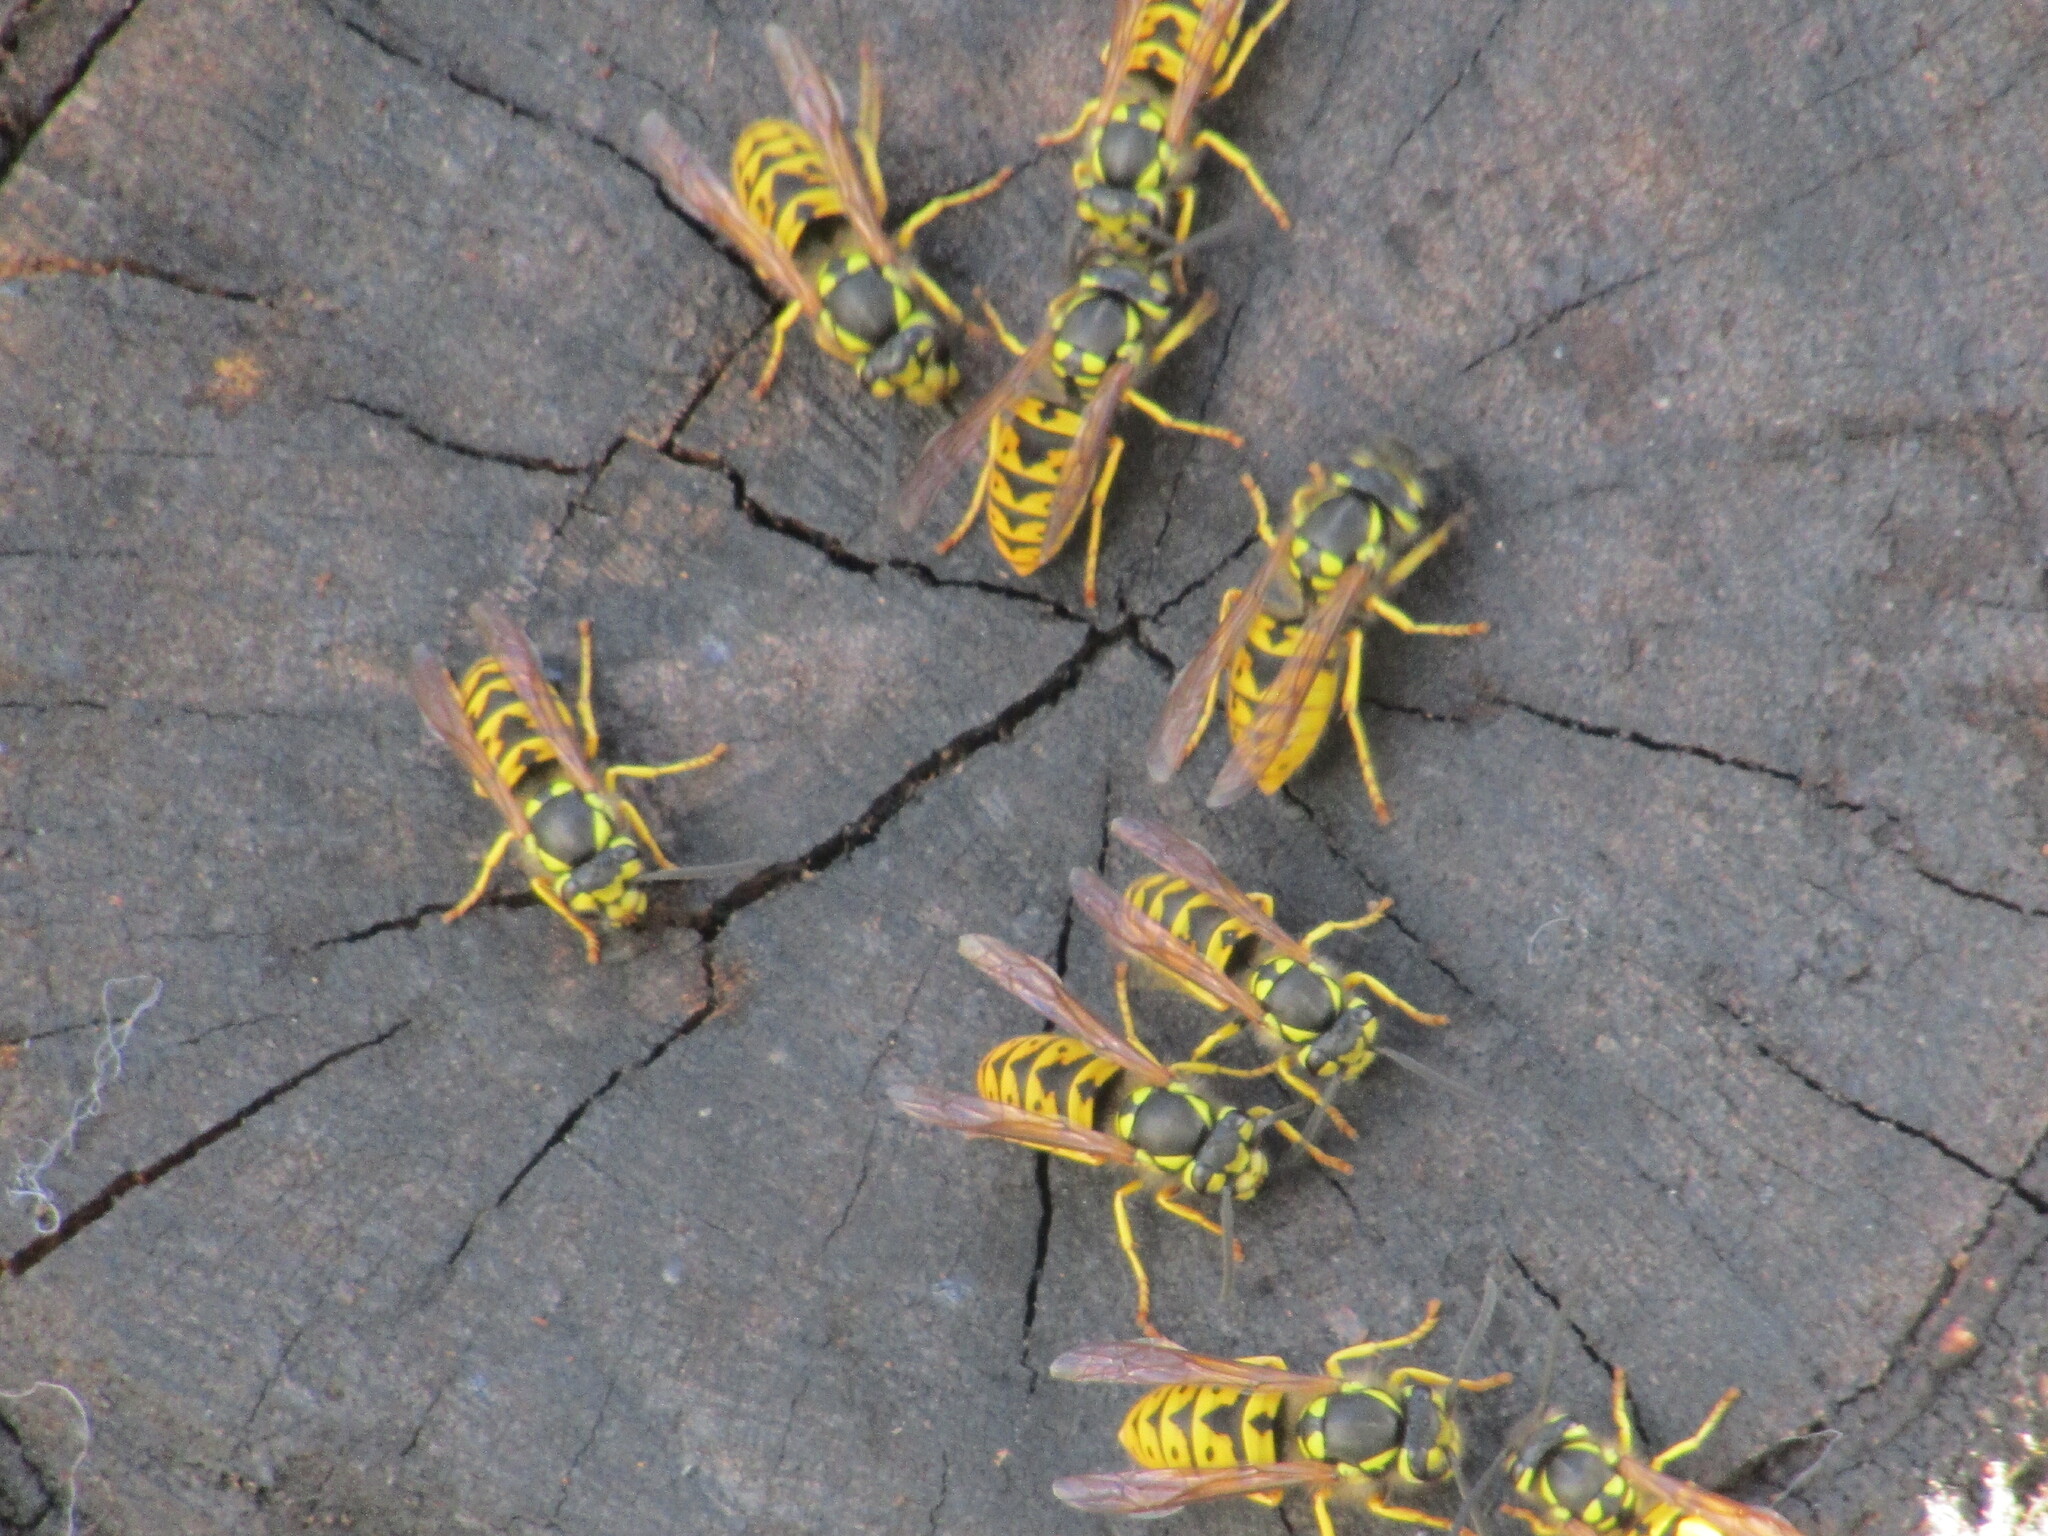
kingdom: Animalia
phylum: Arthropoda
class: Insecta
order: Hymenoptera
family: Vespidae
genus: Vespula
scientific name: Vespula germanica
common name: German wasp
